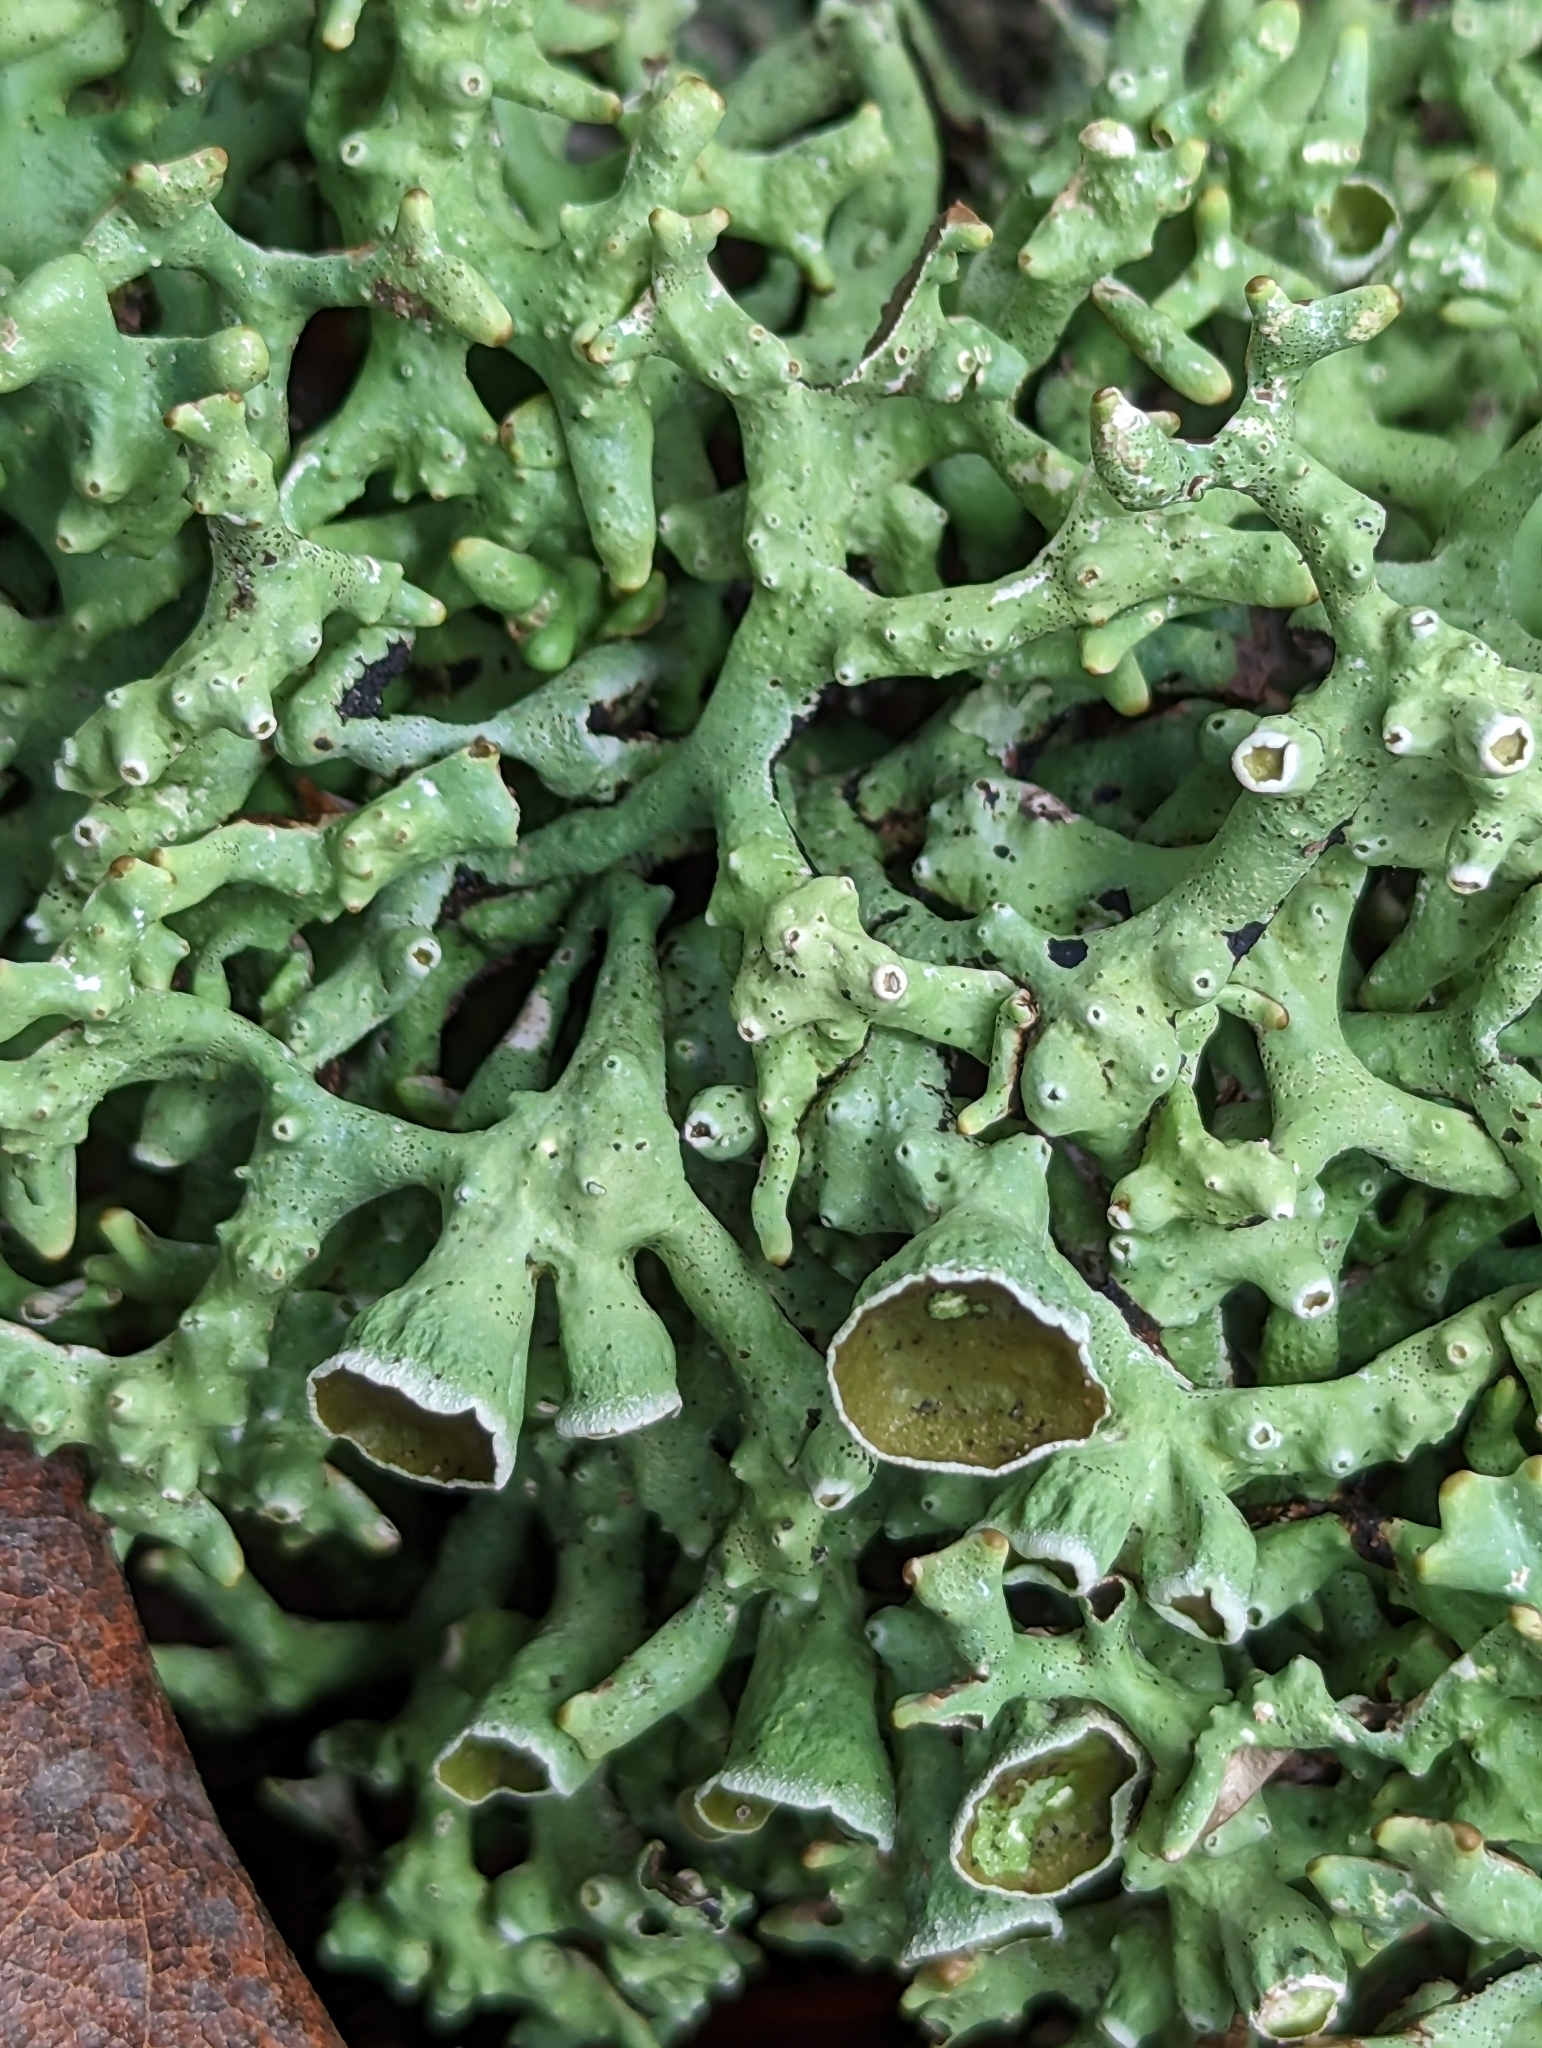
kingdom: Fungi
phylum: Ascomycota
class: Lecanoromycetes
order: Lecanorales
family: Parmeliaceae
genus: Hypogymnia
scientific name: Hypogymnia imshaugii
